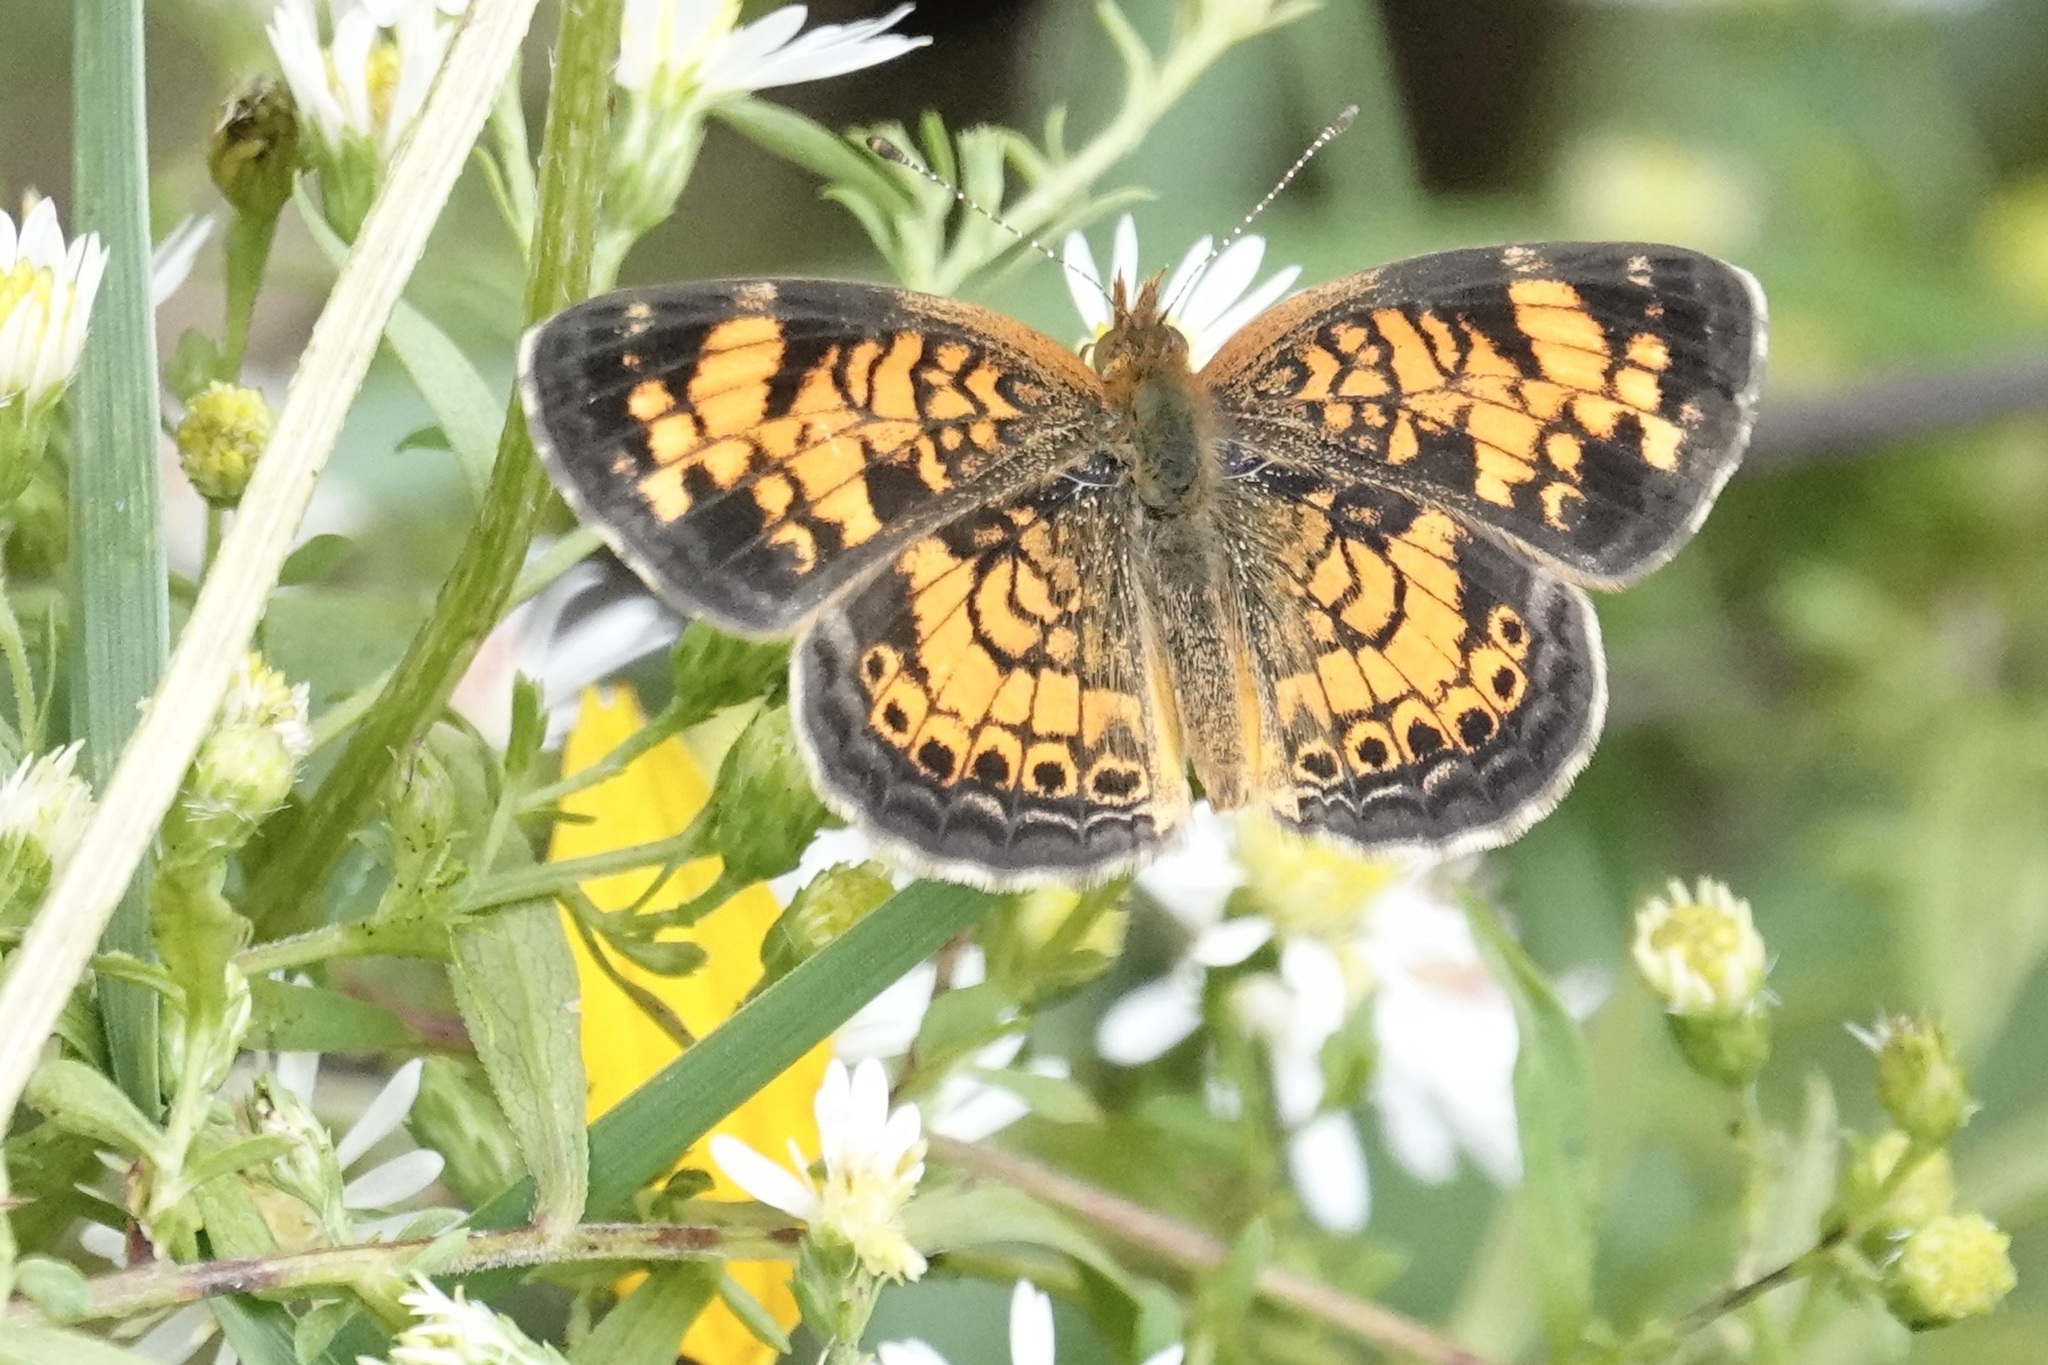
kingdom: Animalia
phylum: Arthropoda
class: Insecta
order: Lepidoptera
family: Nymphalidae
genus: Phyciodes
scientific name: Phyciodes tharos
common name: Pearl crescent
